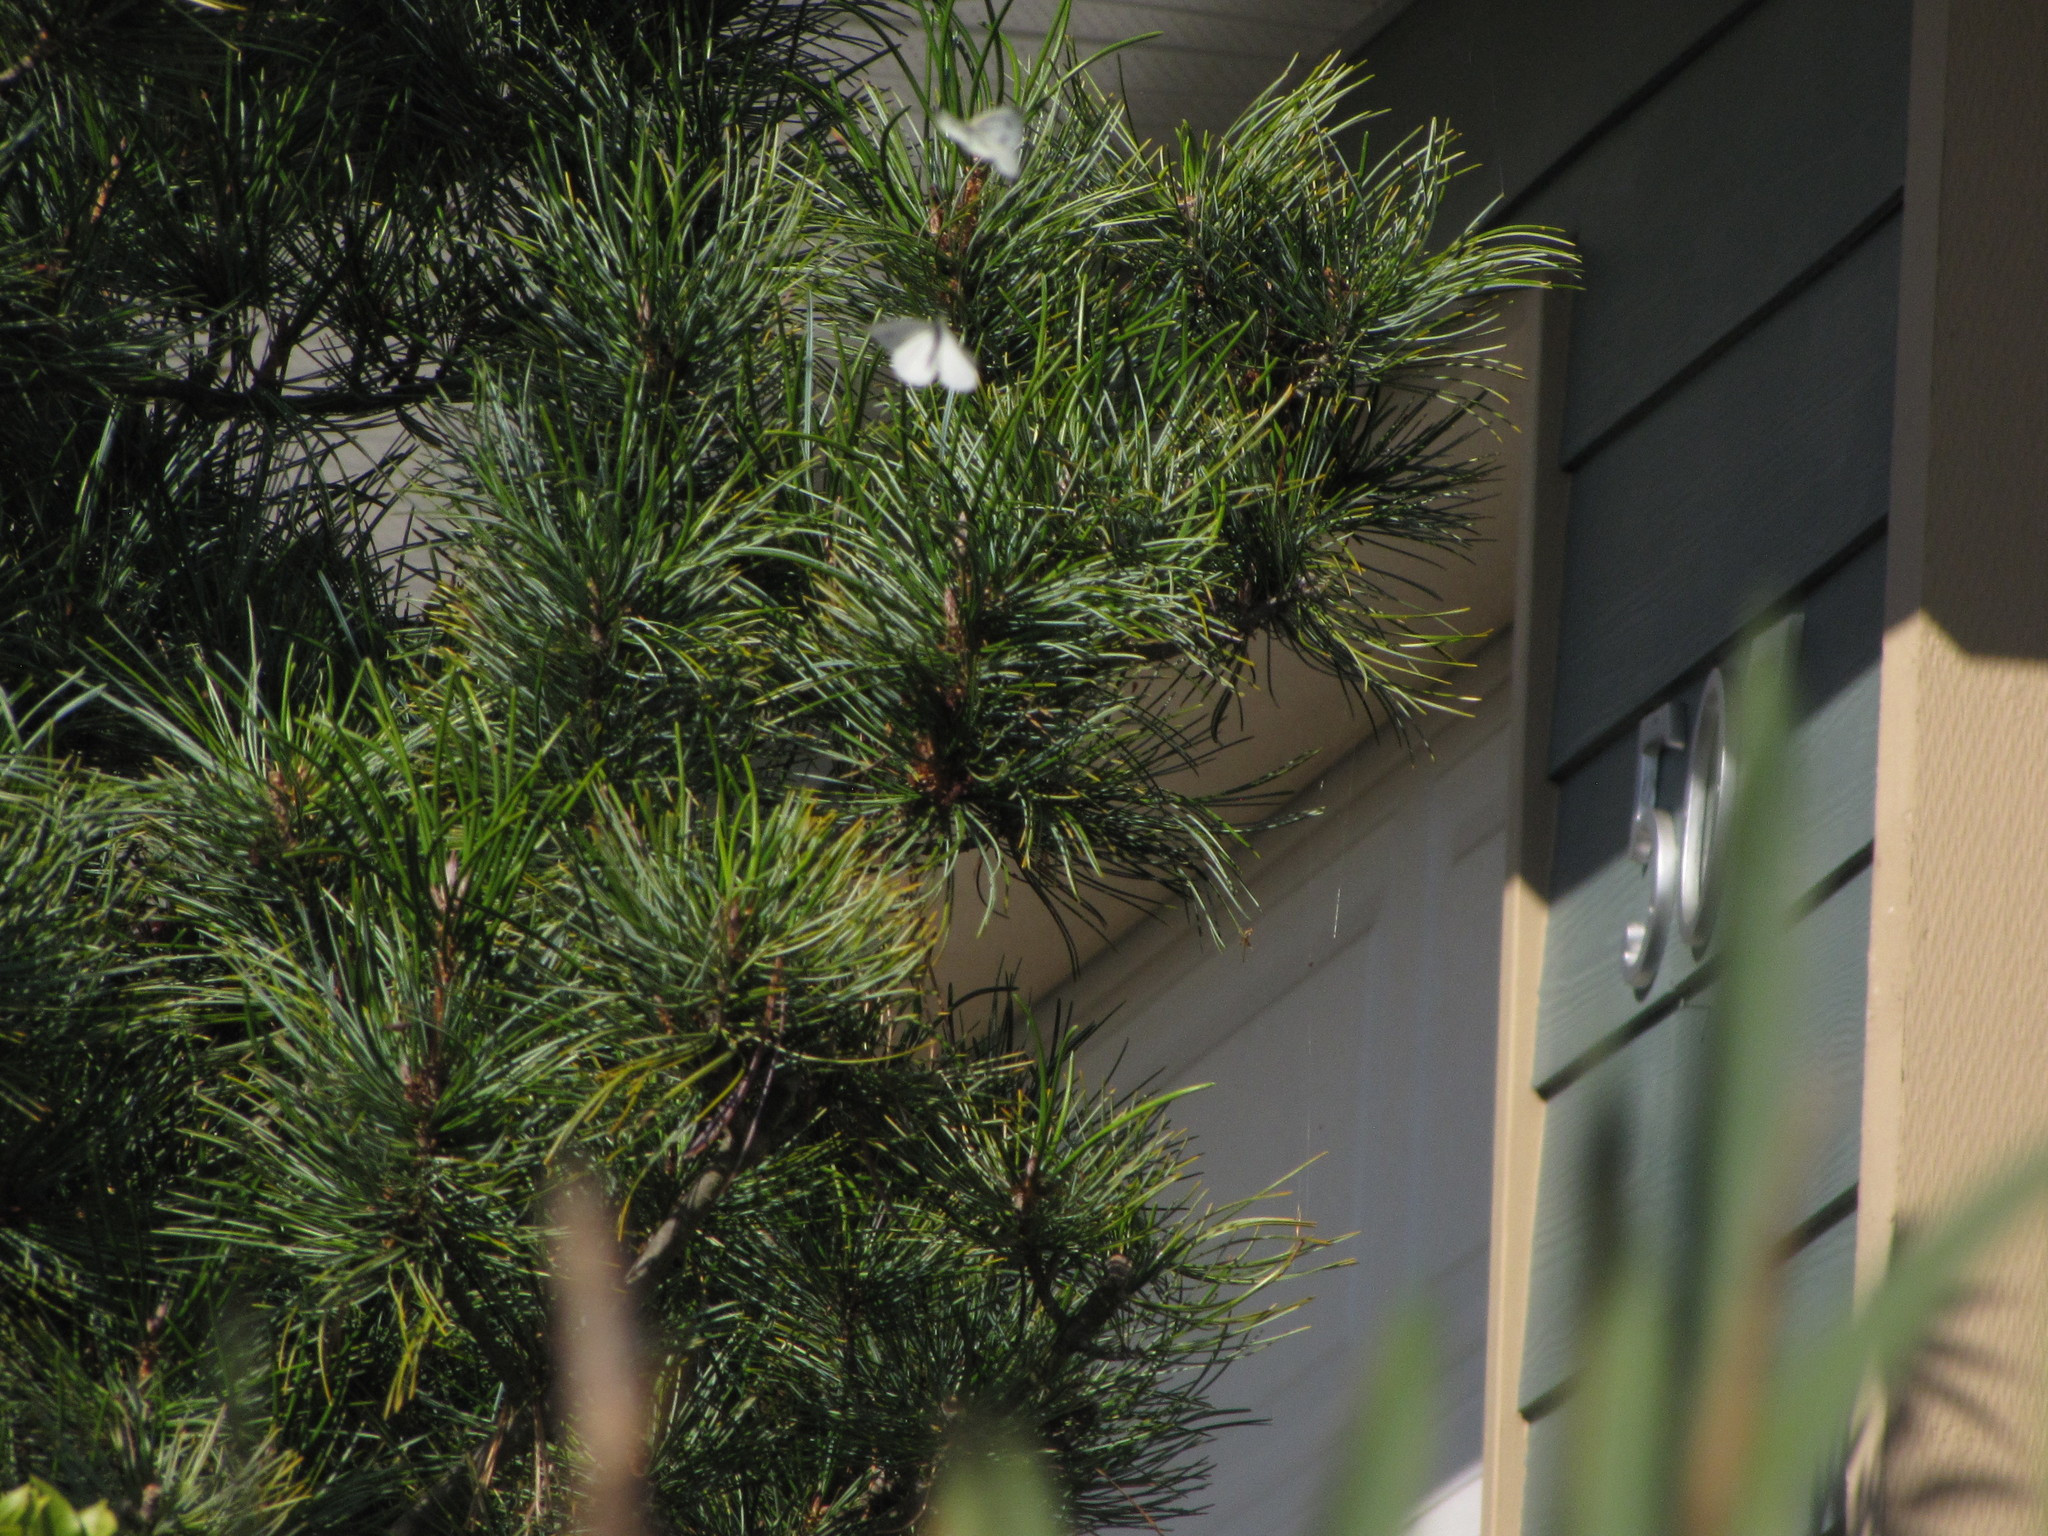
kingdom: Animalia
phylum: Arthropoda
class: Insecta
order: Lepidoptera
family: Pieridae
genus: Pieris
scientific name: Pieris rapae
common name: Small white
